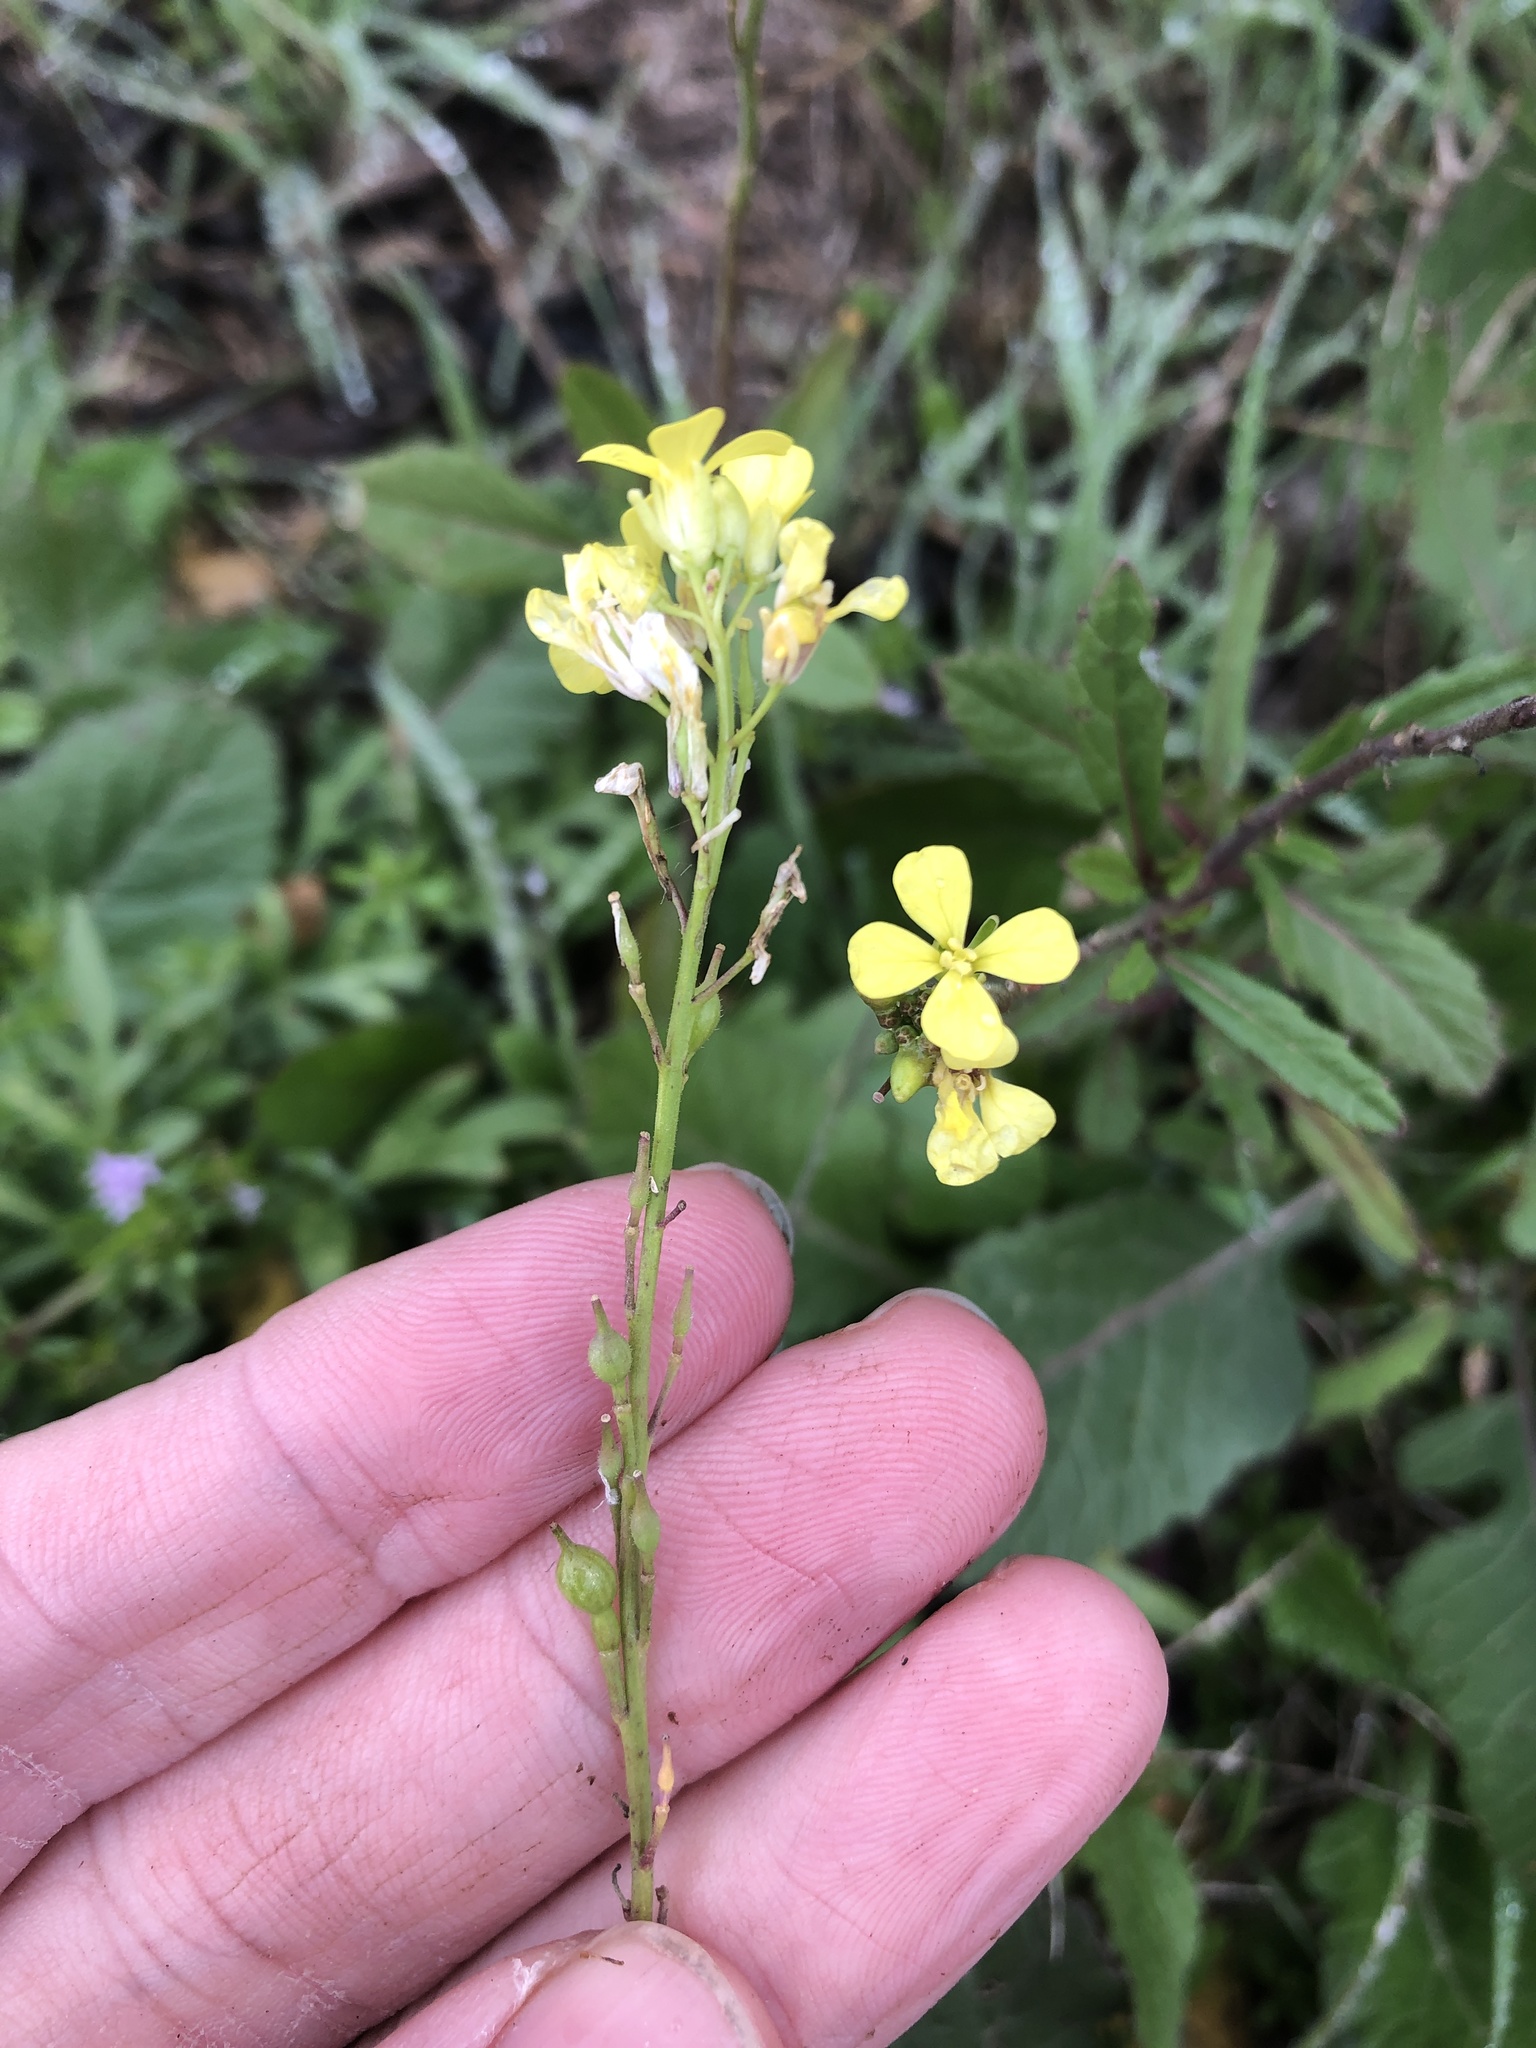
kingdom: Plantae
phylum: Tracheophyta
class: Magnoliopsida
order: Brassicales
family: Brassicaceae
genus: Rapistrum
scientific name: Rapistrum rugosum
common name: Annual bastardcabbage
